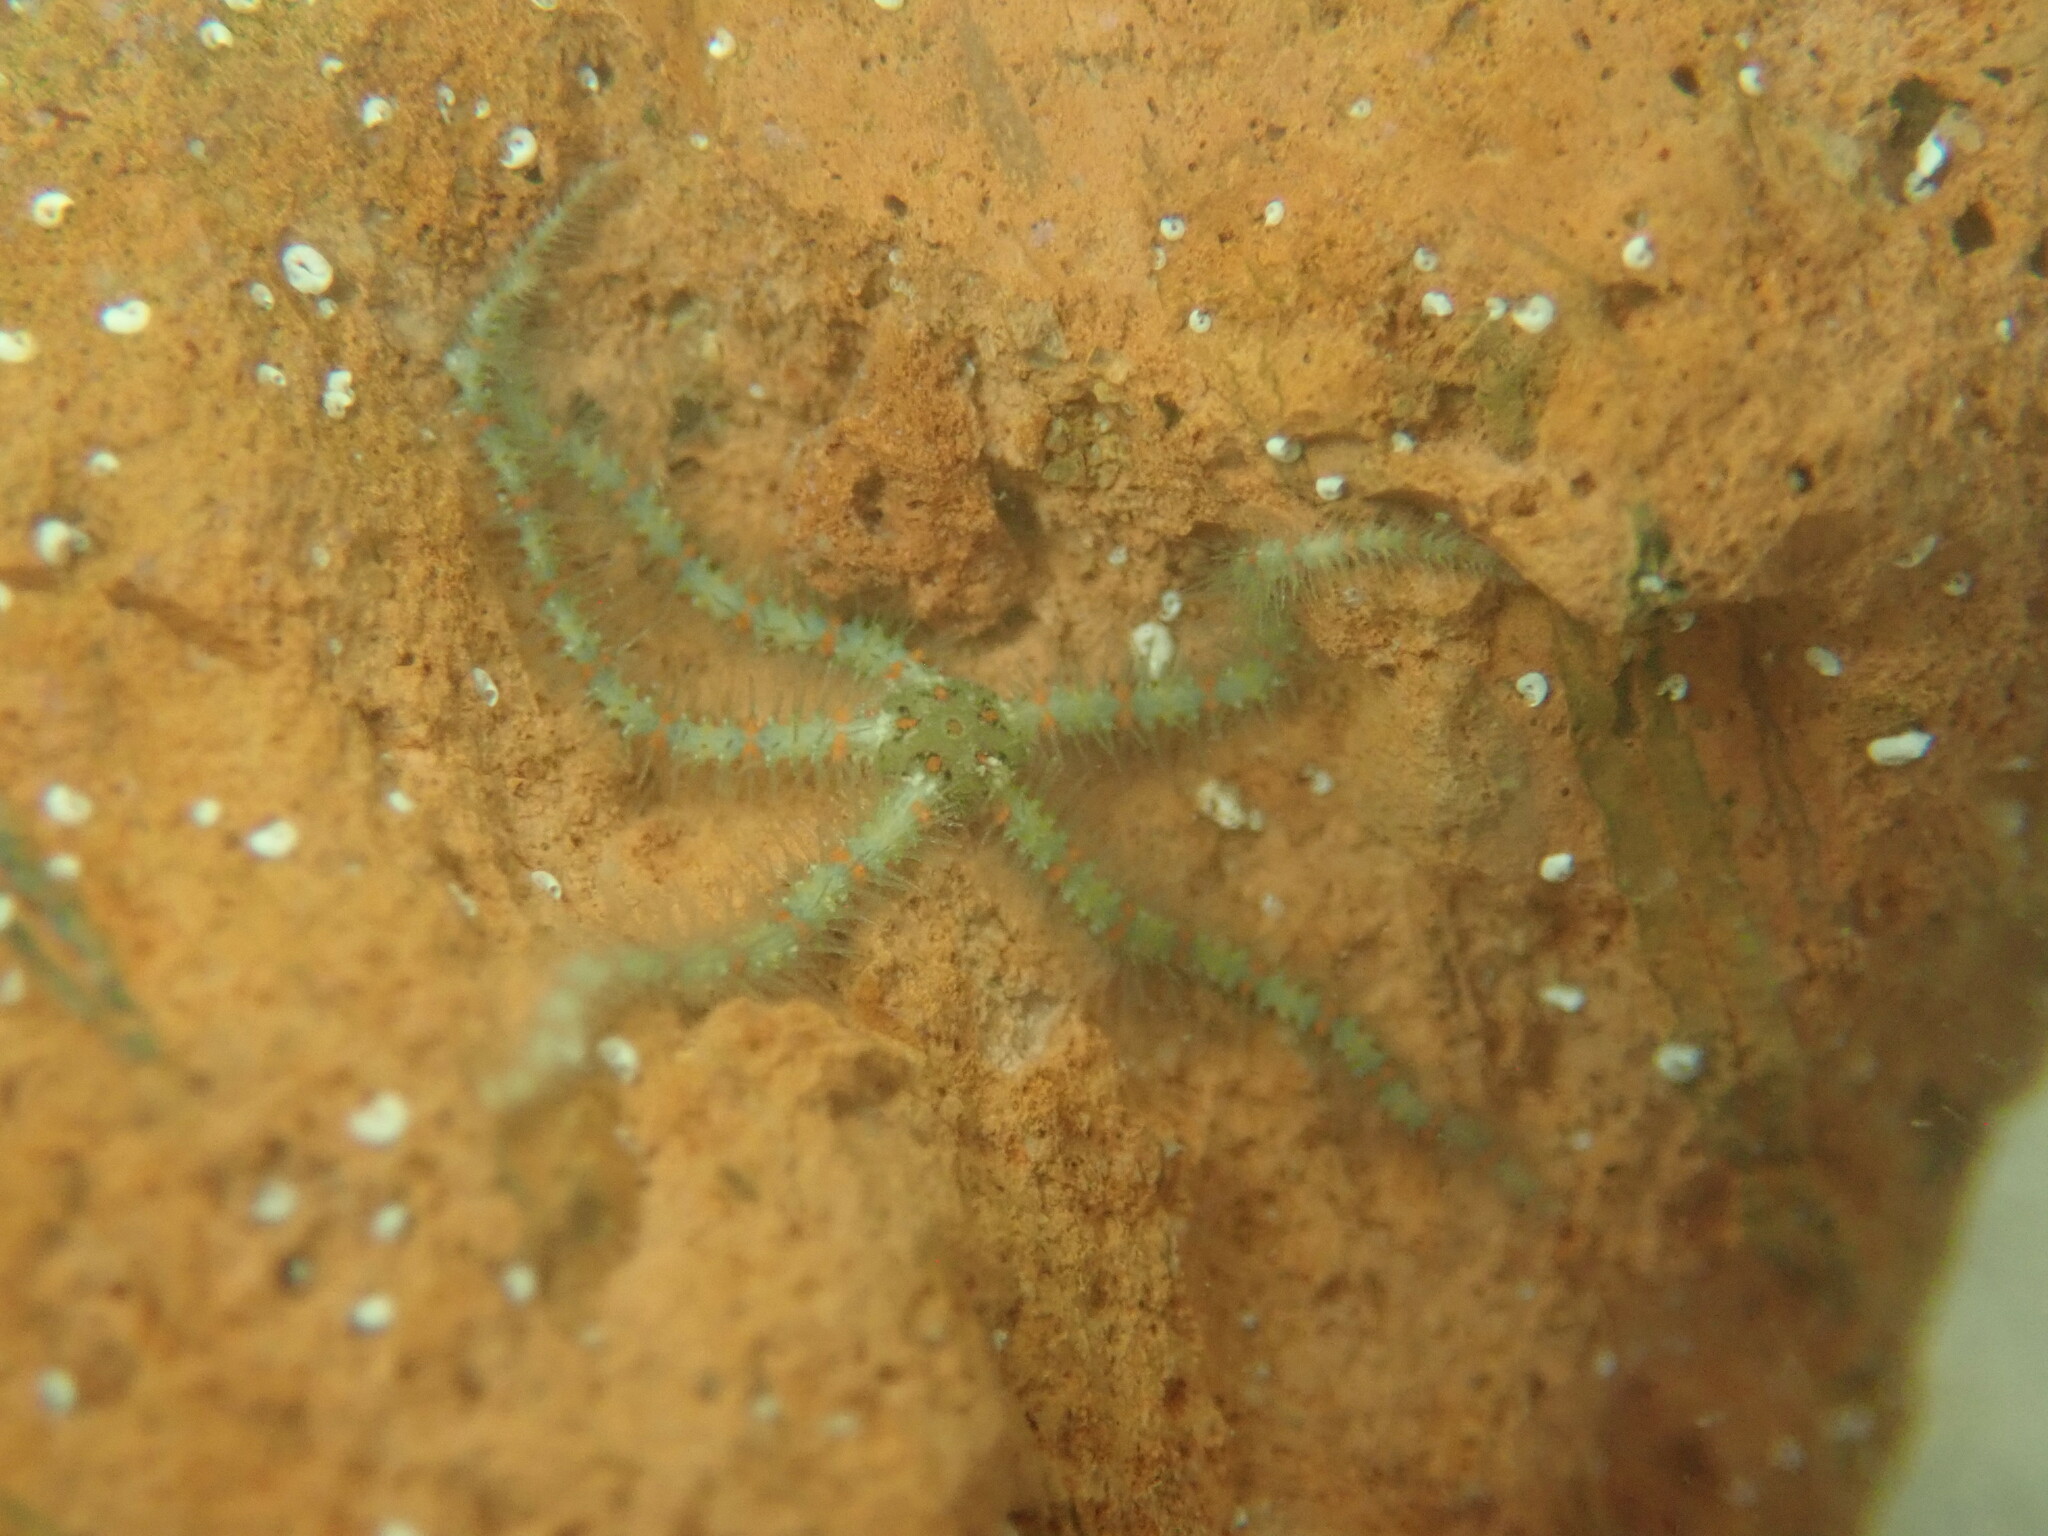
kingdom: Animalia
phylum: Echinodermata
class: Ophiuroidea
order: Amphilepidida
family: Ophiotrichidae
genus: Ophiothrix
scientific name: Ophiothrix spiculata
